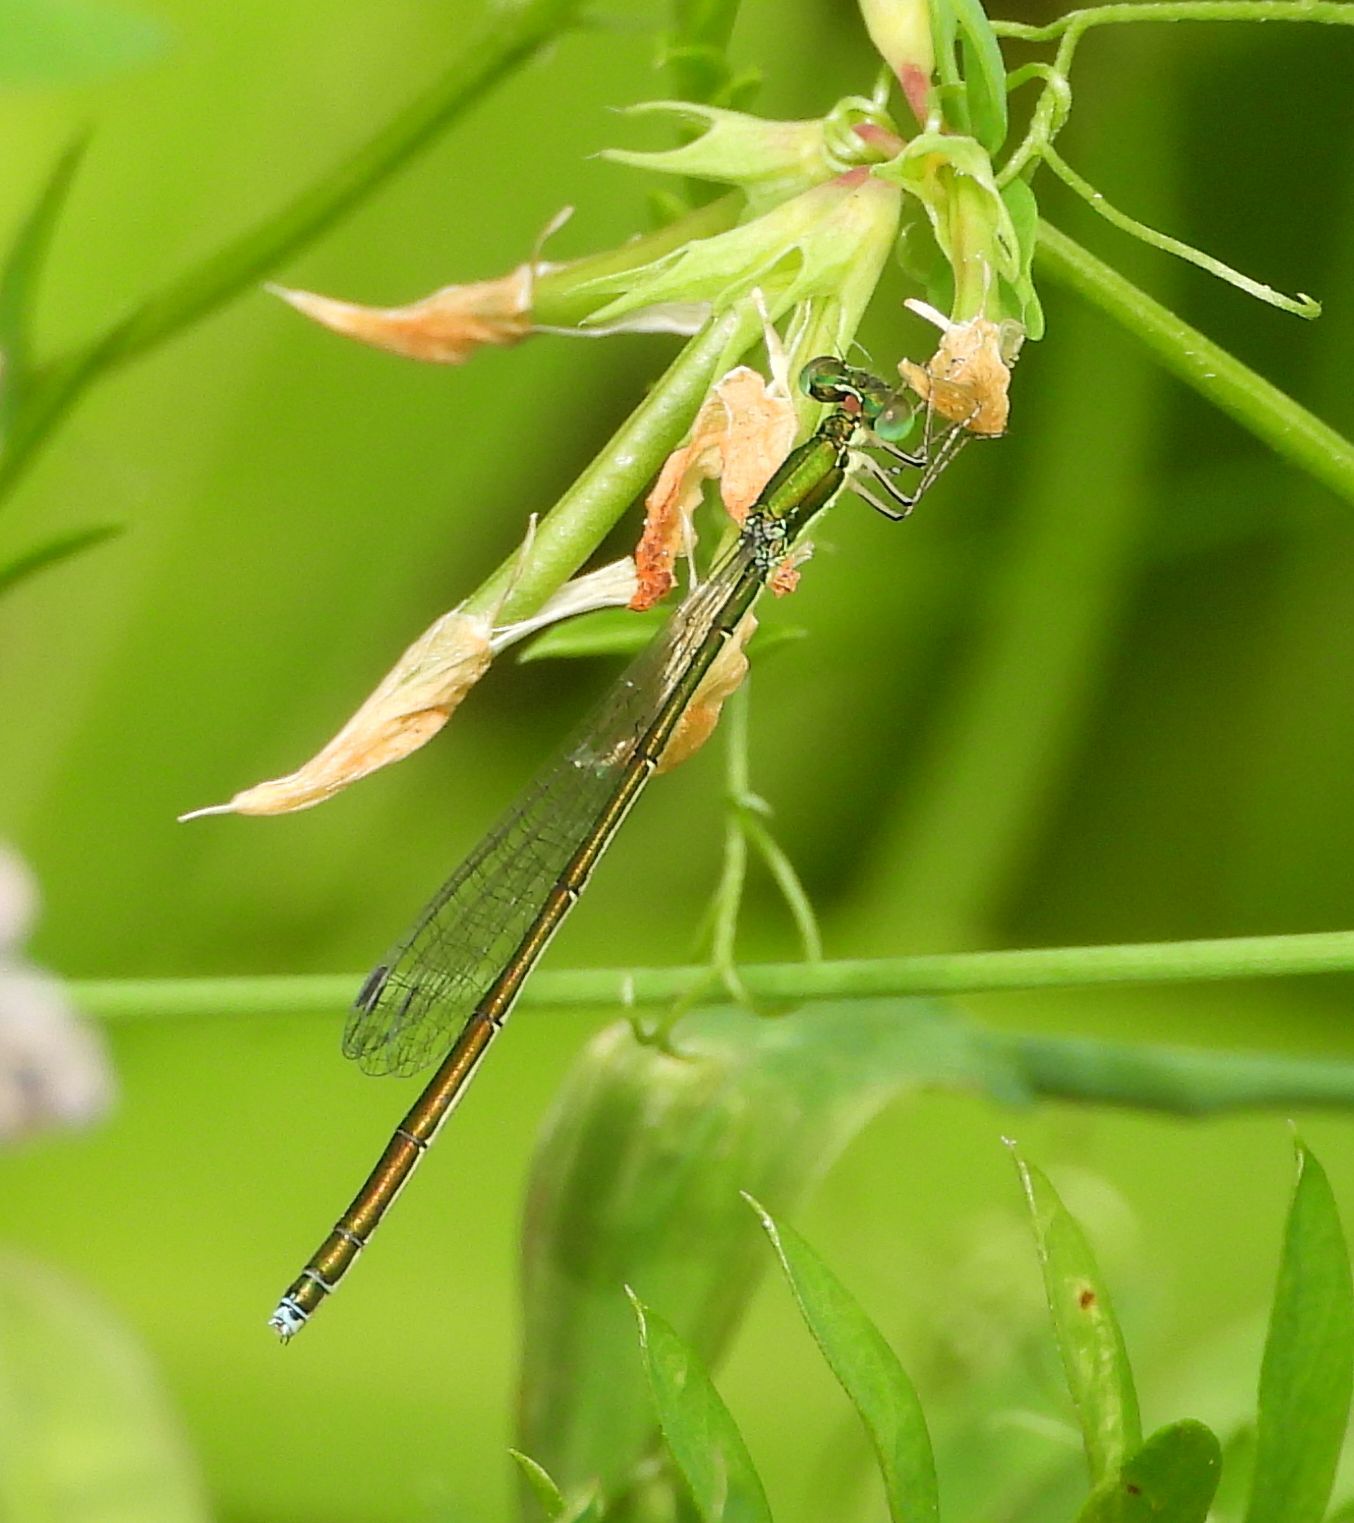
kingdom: Animalia
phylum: Arthropoda
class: Insecta
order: Odonata
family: Coenagrionidae
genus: Nehalennia
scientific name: Nehalennia irene
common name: Sedge sprite
